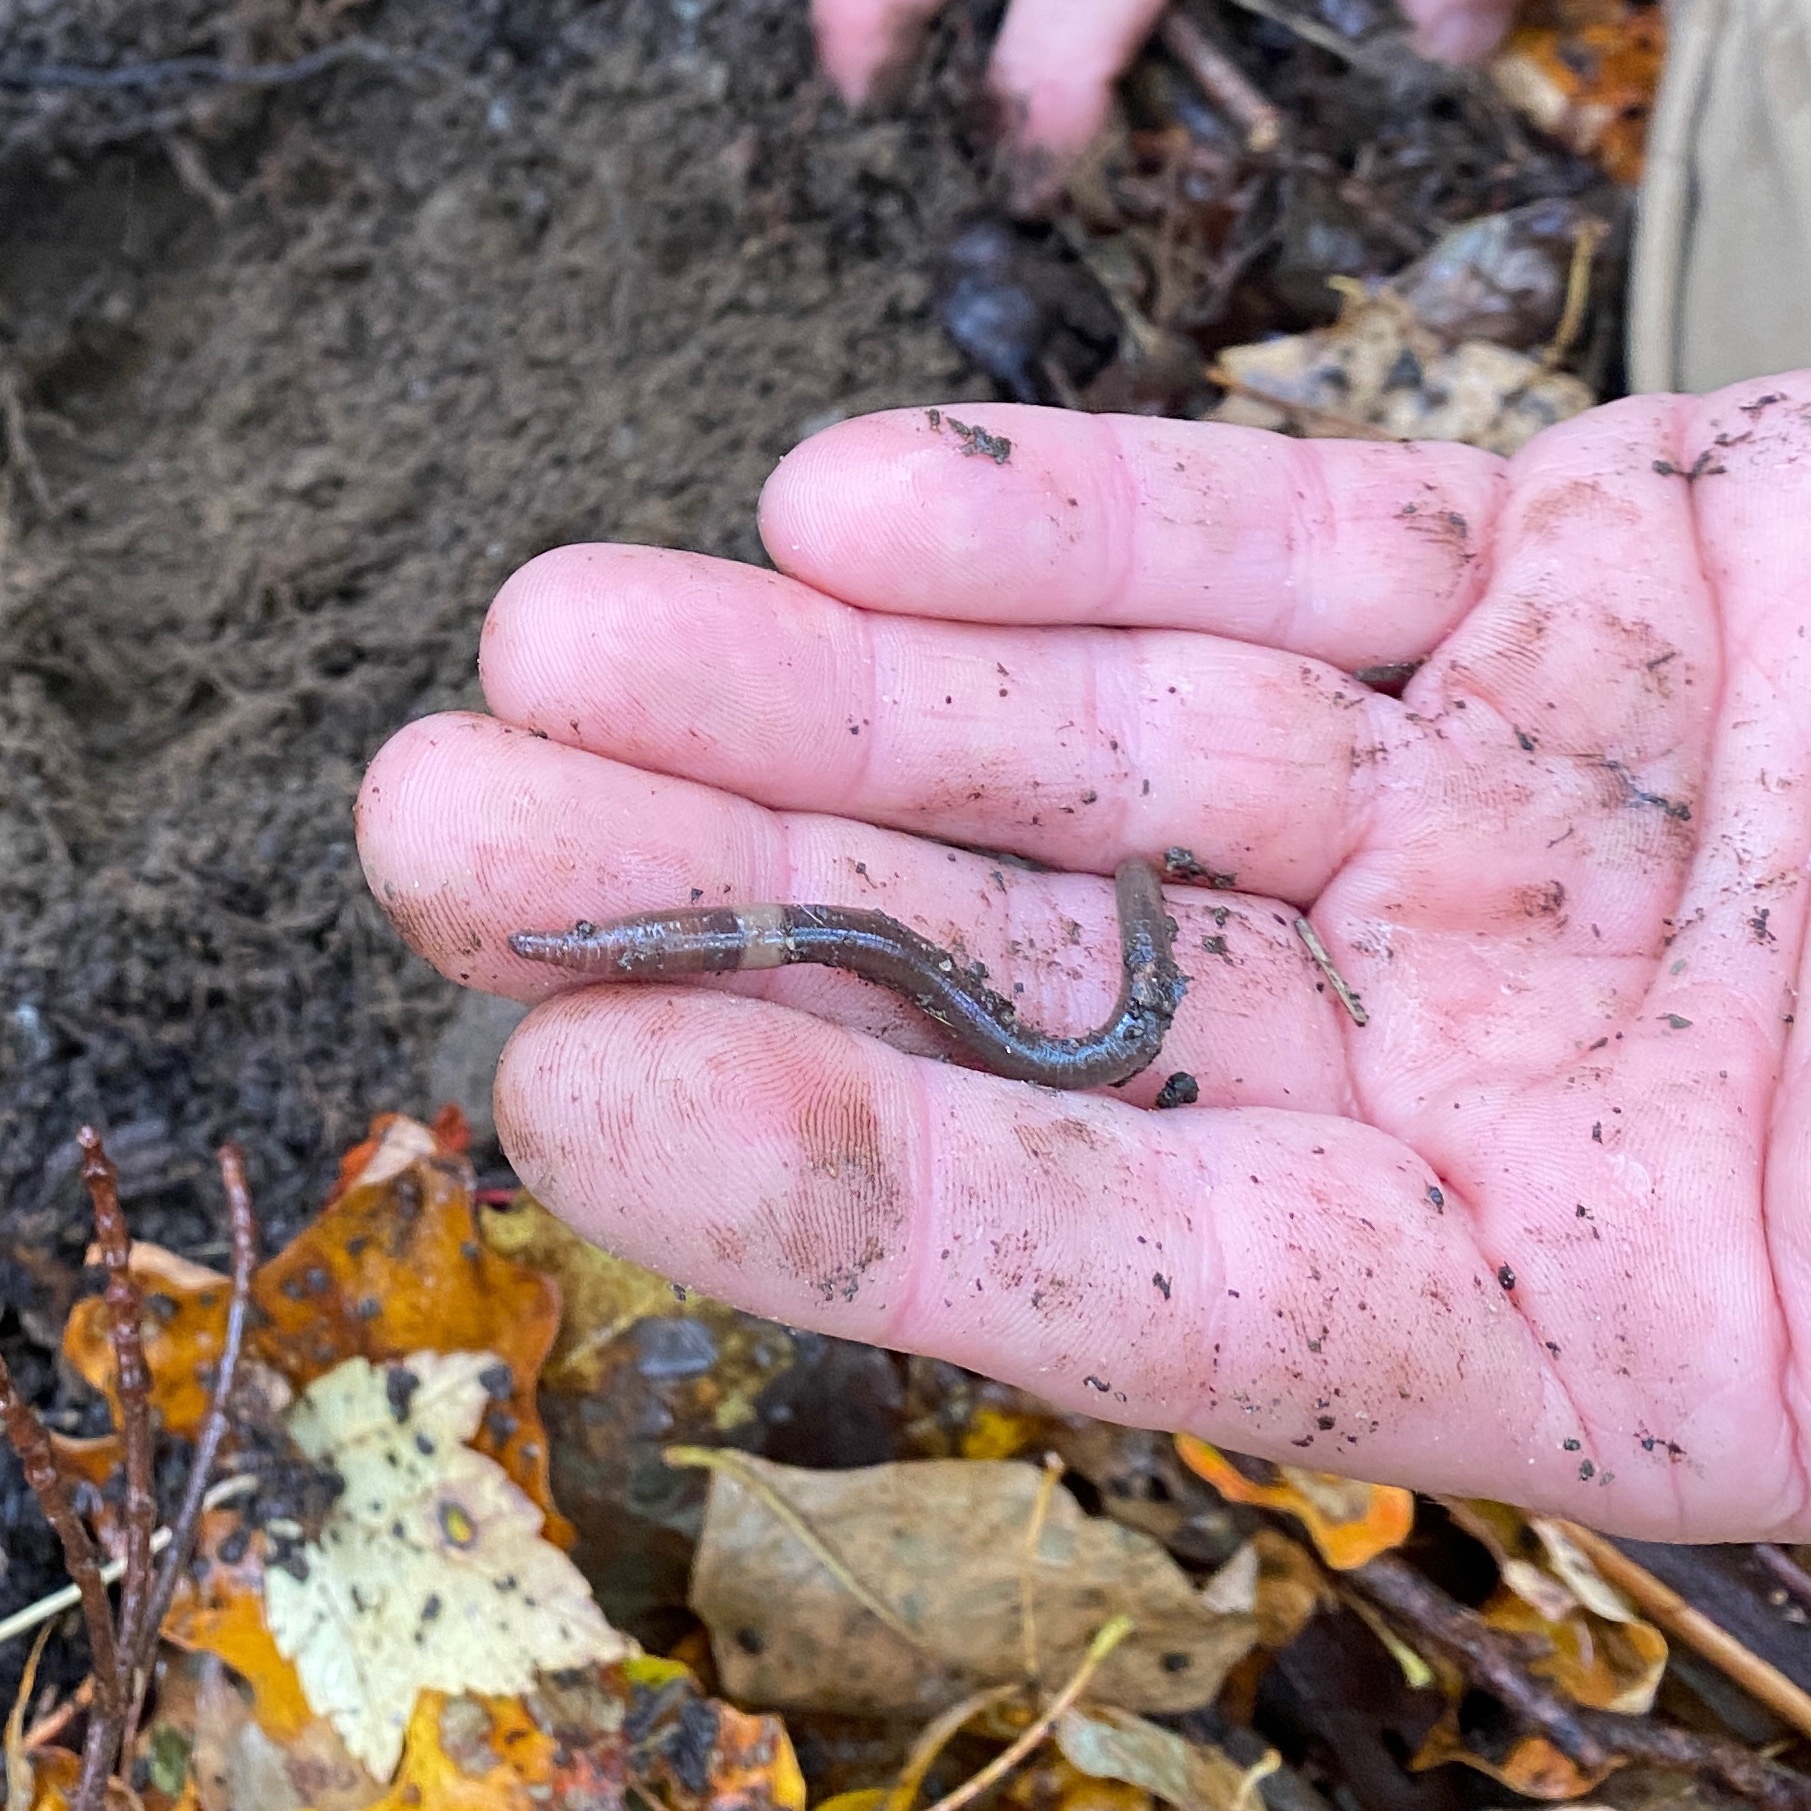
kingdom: Animalia
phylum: Annelida
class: Clitellata
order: Crassiclitellata
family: Megascolecidae
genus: Amynthas
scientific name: Amynthas agrestis
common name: Jumping snake worm
